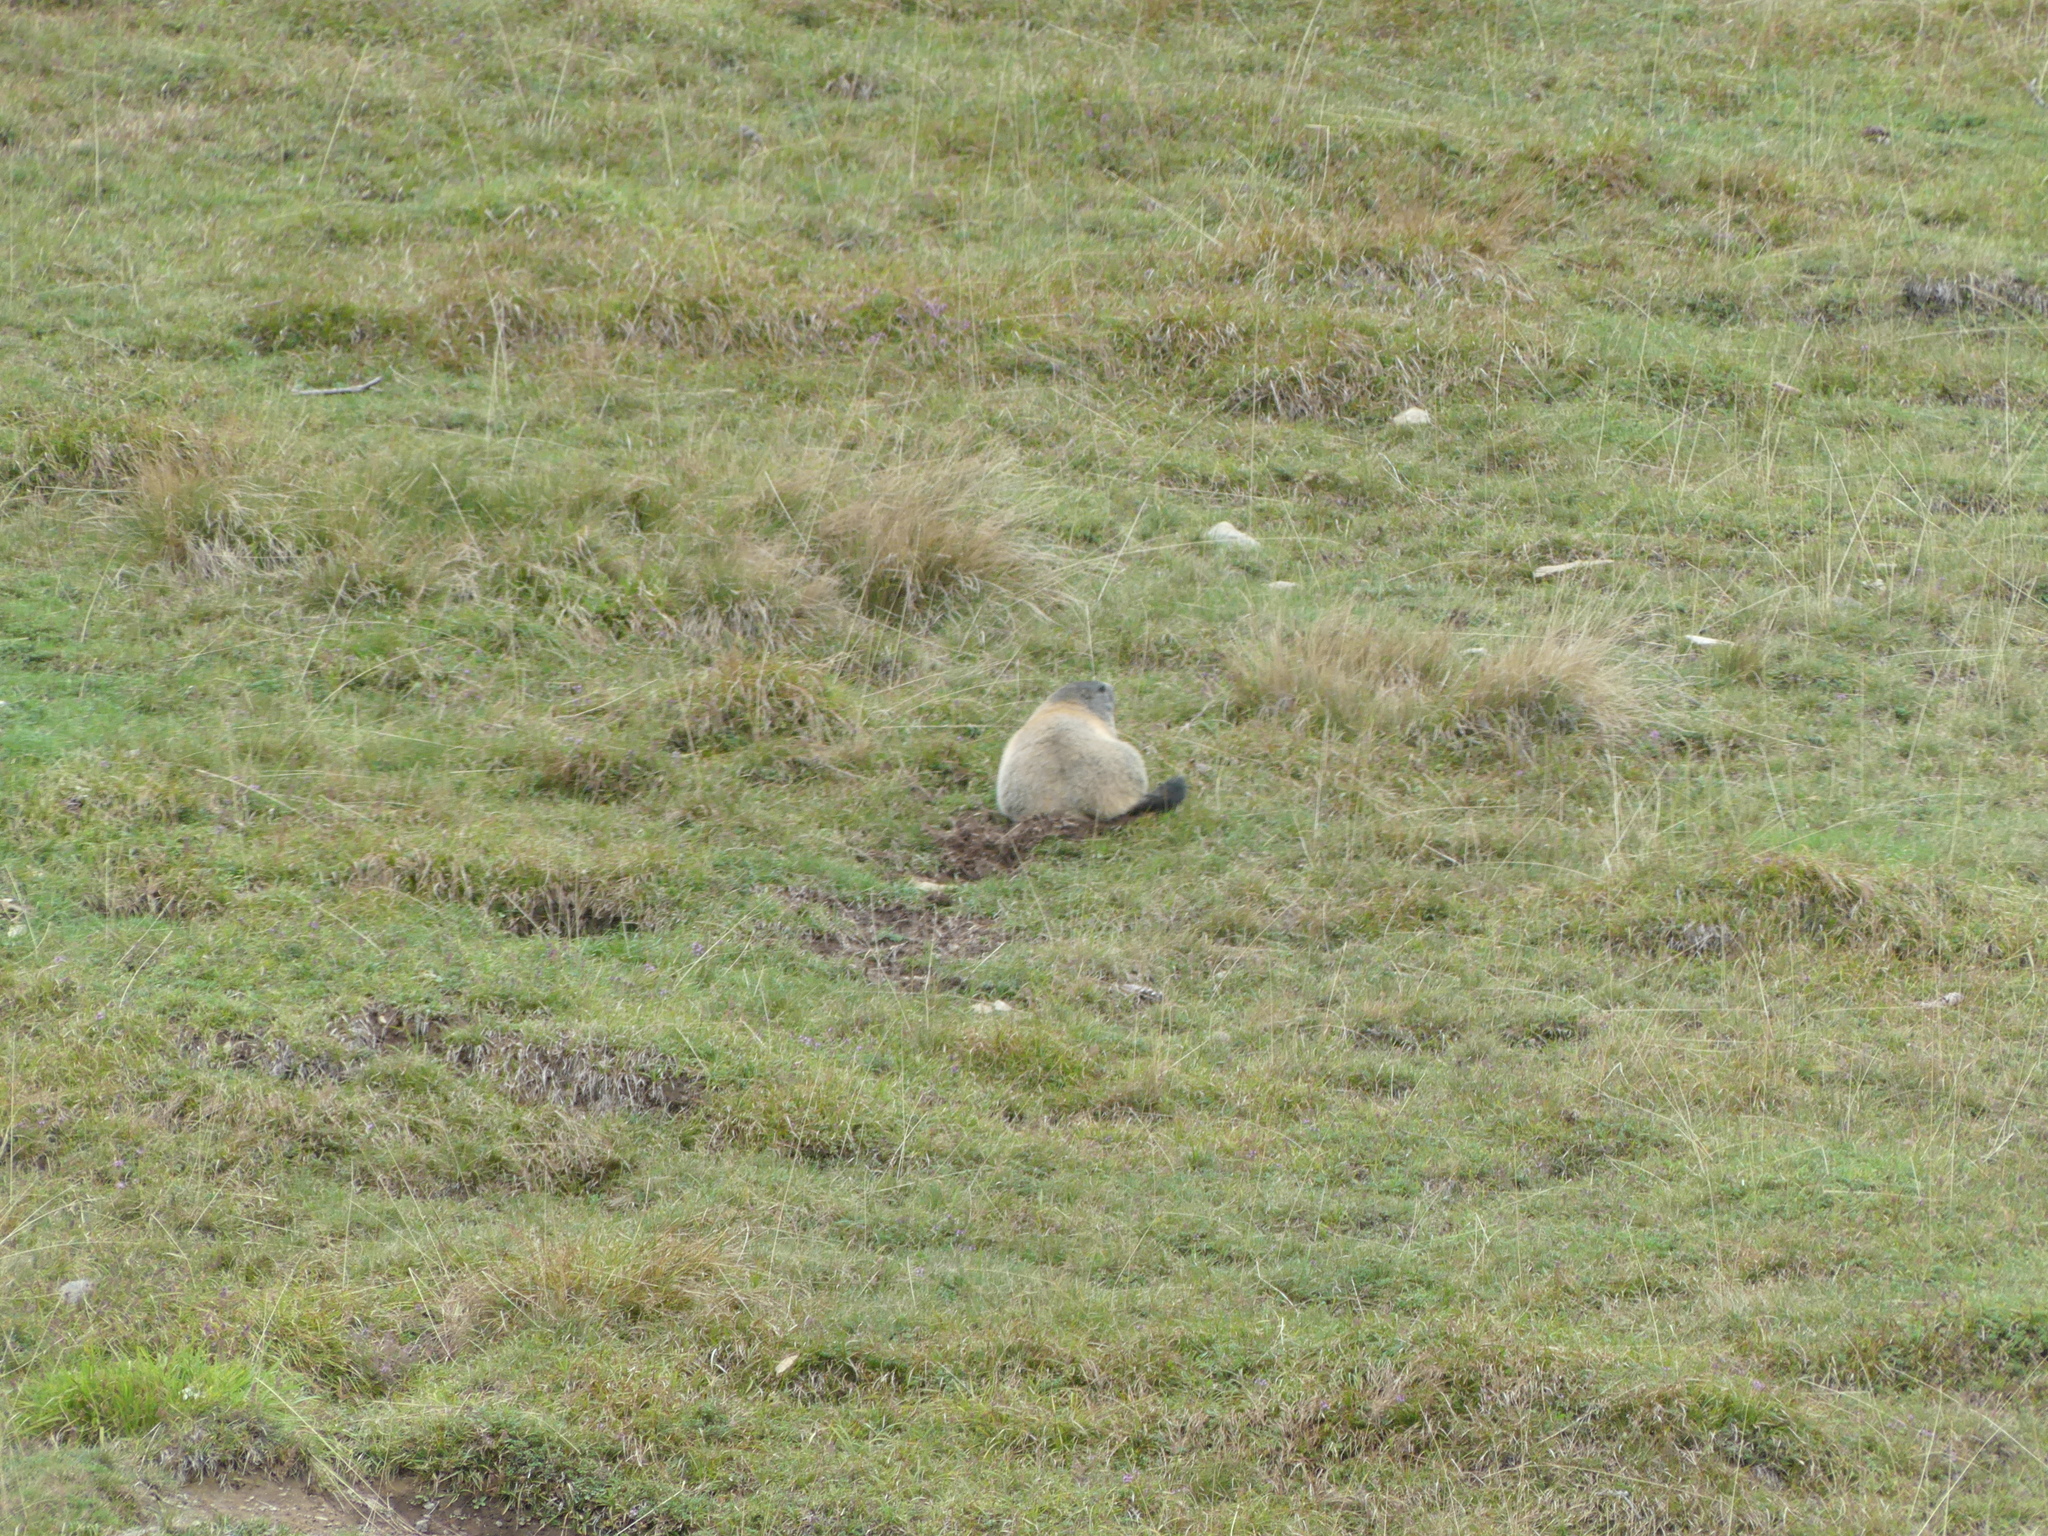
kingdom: Animalia
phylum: Chordata
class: Mammalia
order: Rodentia
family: Sciuridae
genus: Marmota
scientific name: Marmota marmota
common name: Alpine marmot
